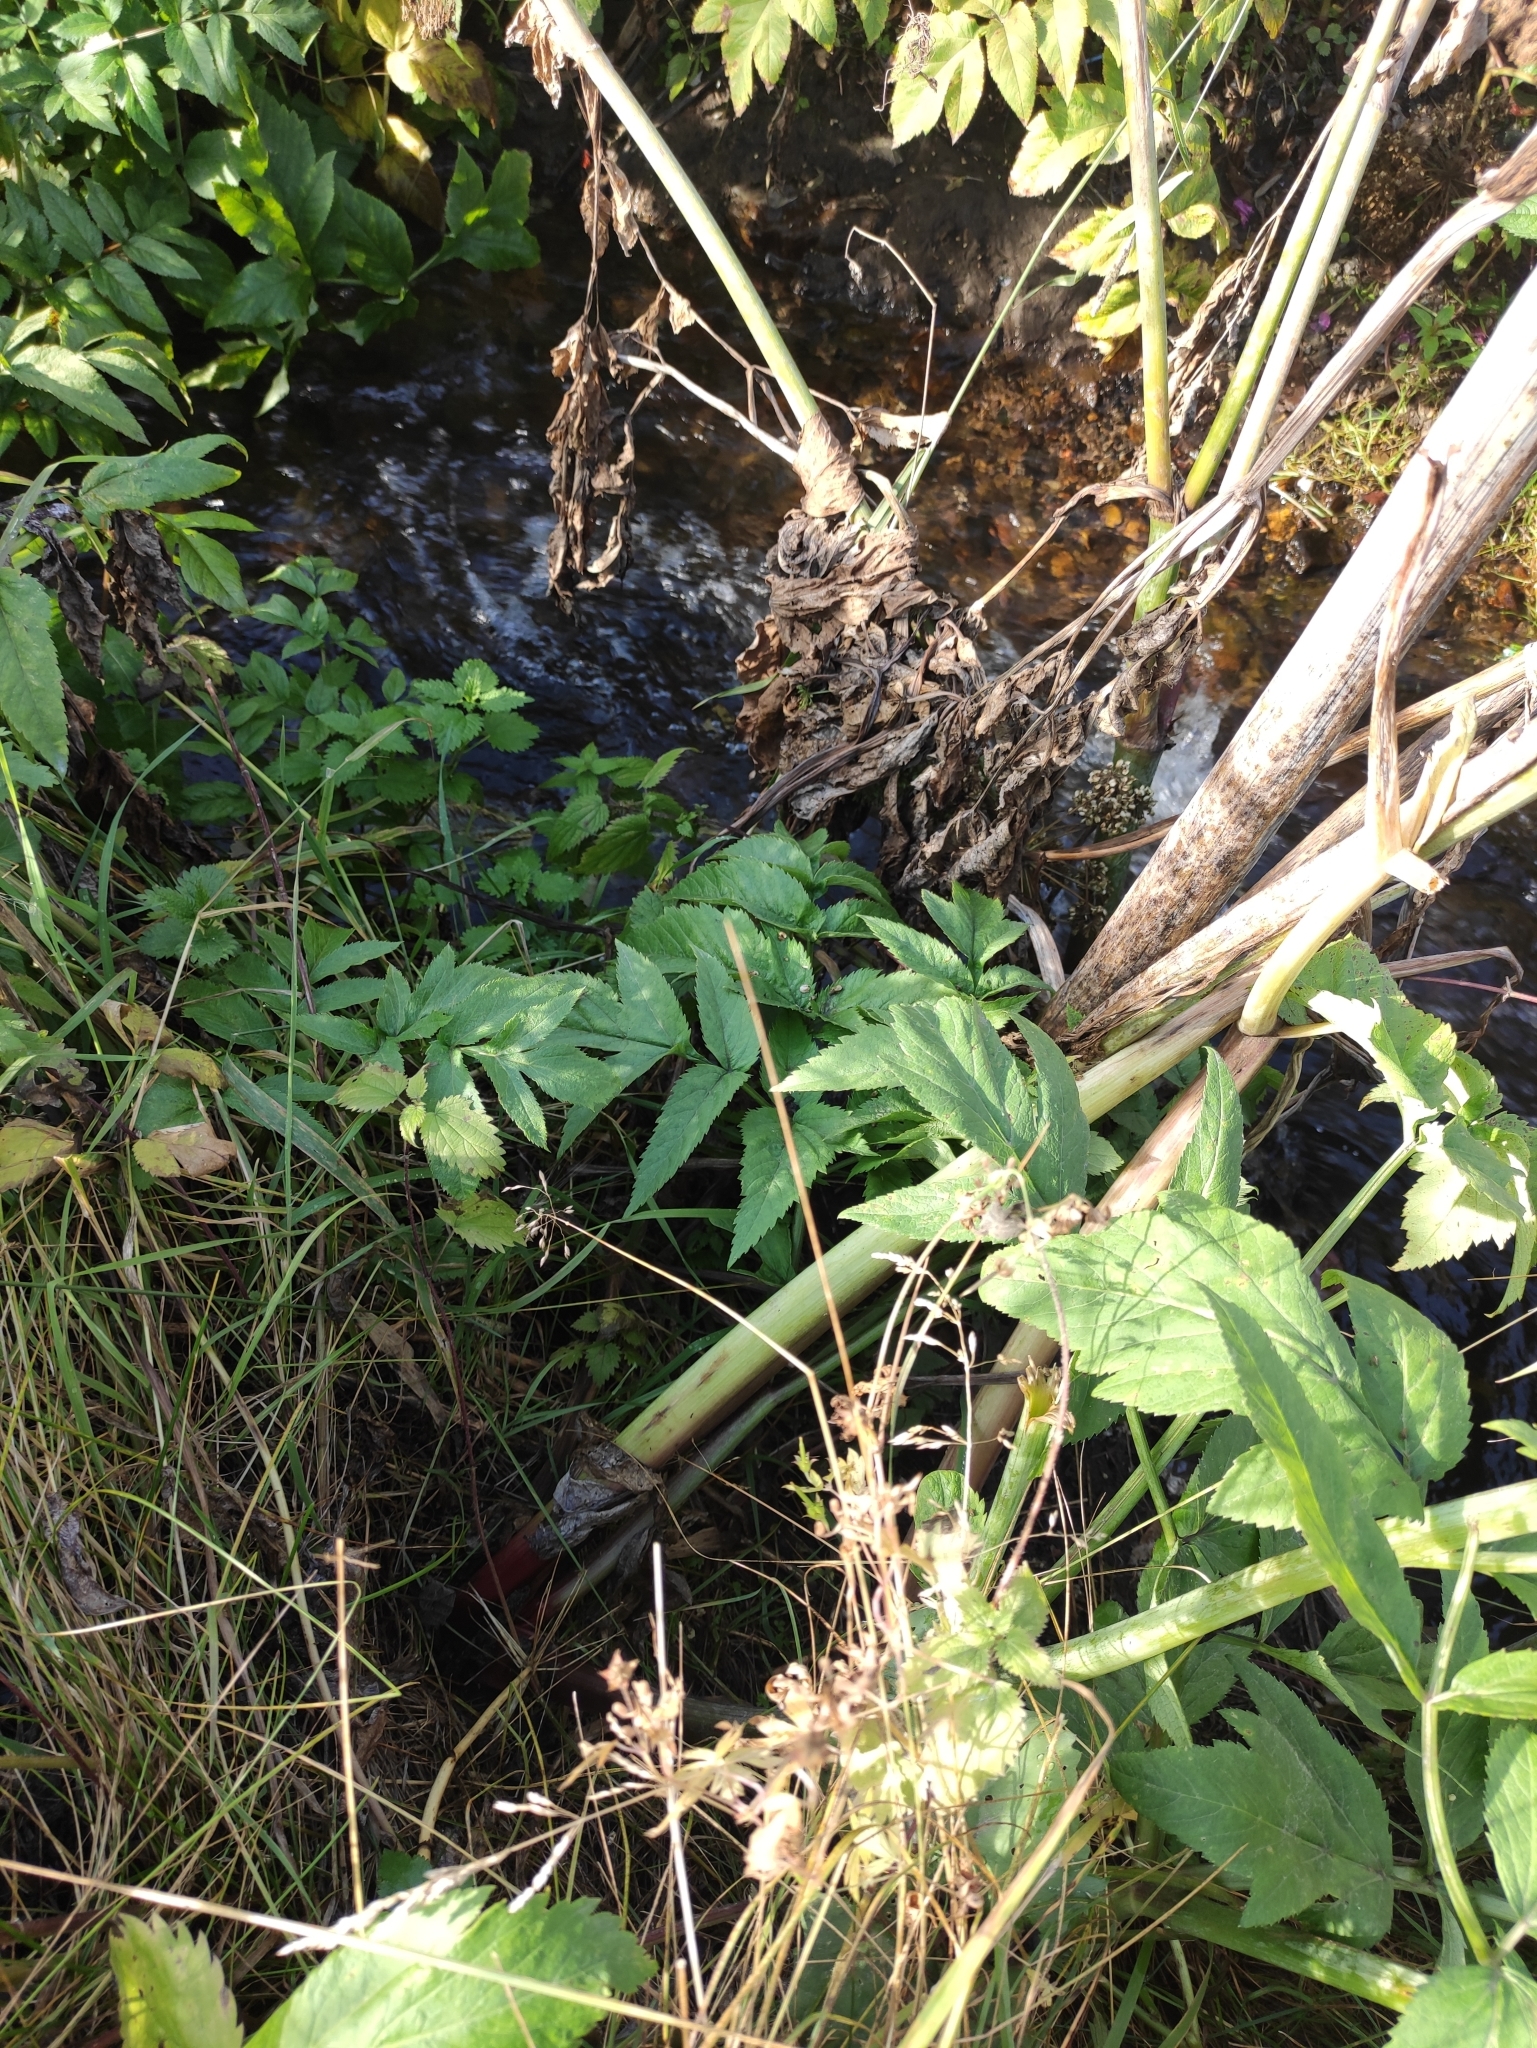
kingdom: Plantae
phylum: Tracheophyta
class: Magnoliopsida
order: Apiales
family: Apiaceae
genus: Angelica
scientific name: Angelica decurrens
